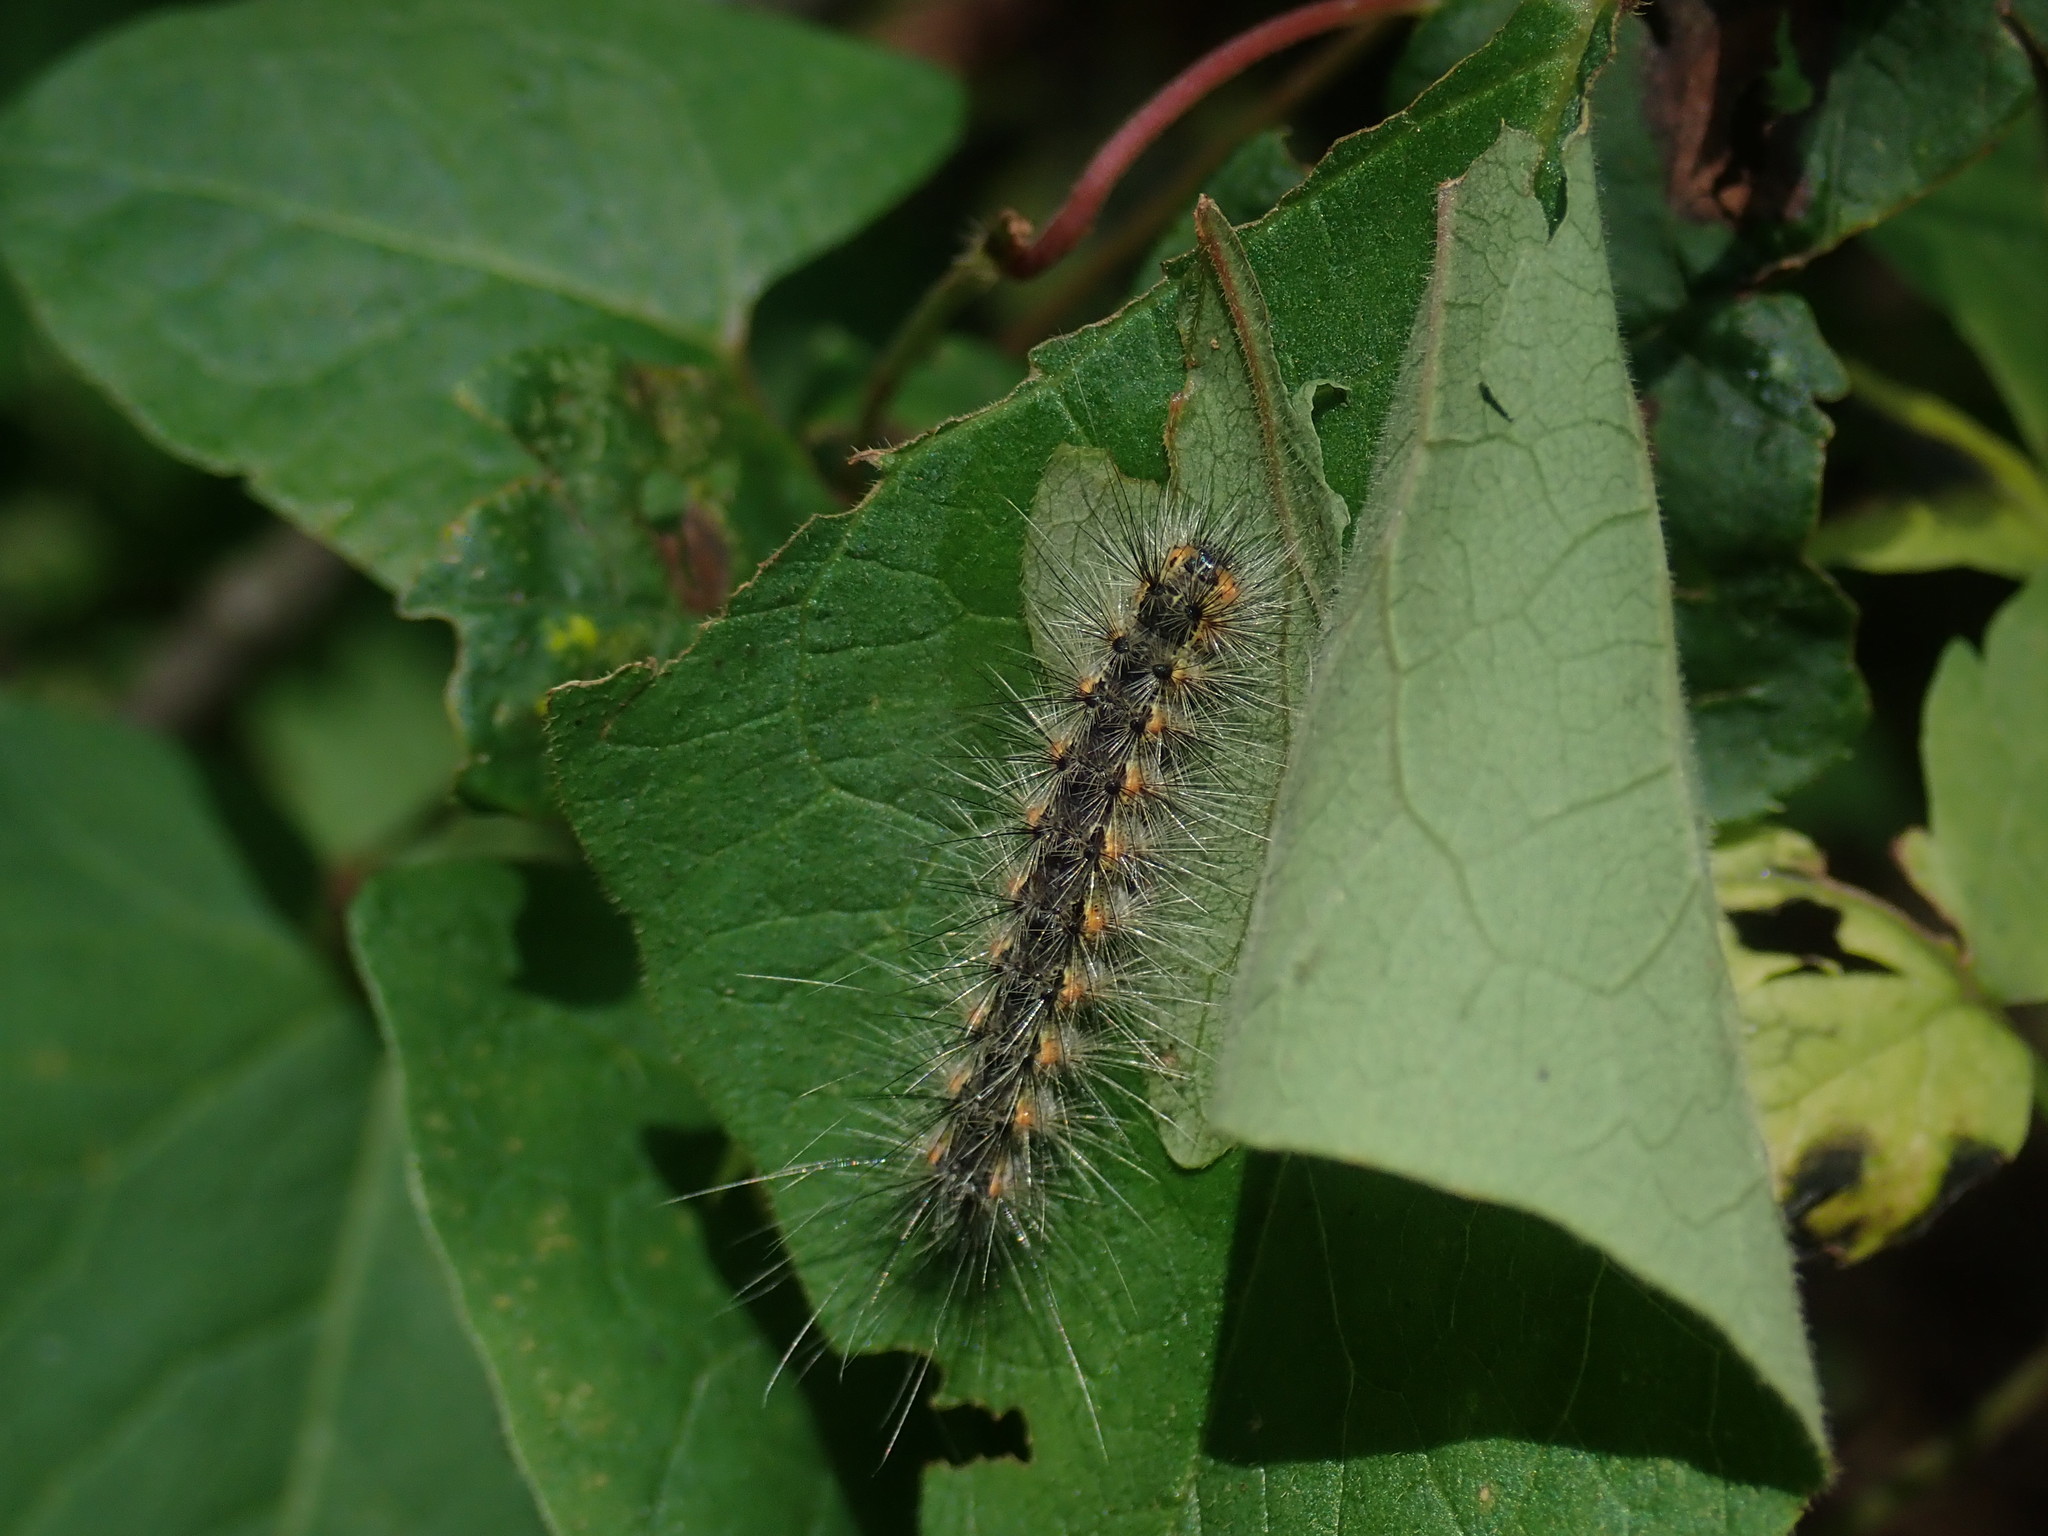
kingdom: Animalia
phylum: Arthropoda
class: Insecta
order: Lepidoptera
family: Erebidae
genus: Hyphantria
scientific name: Hyphantria cunea
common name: American white moth
